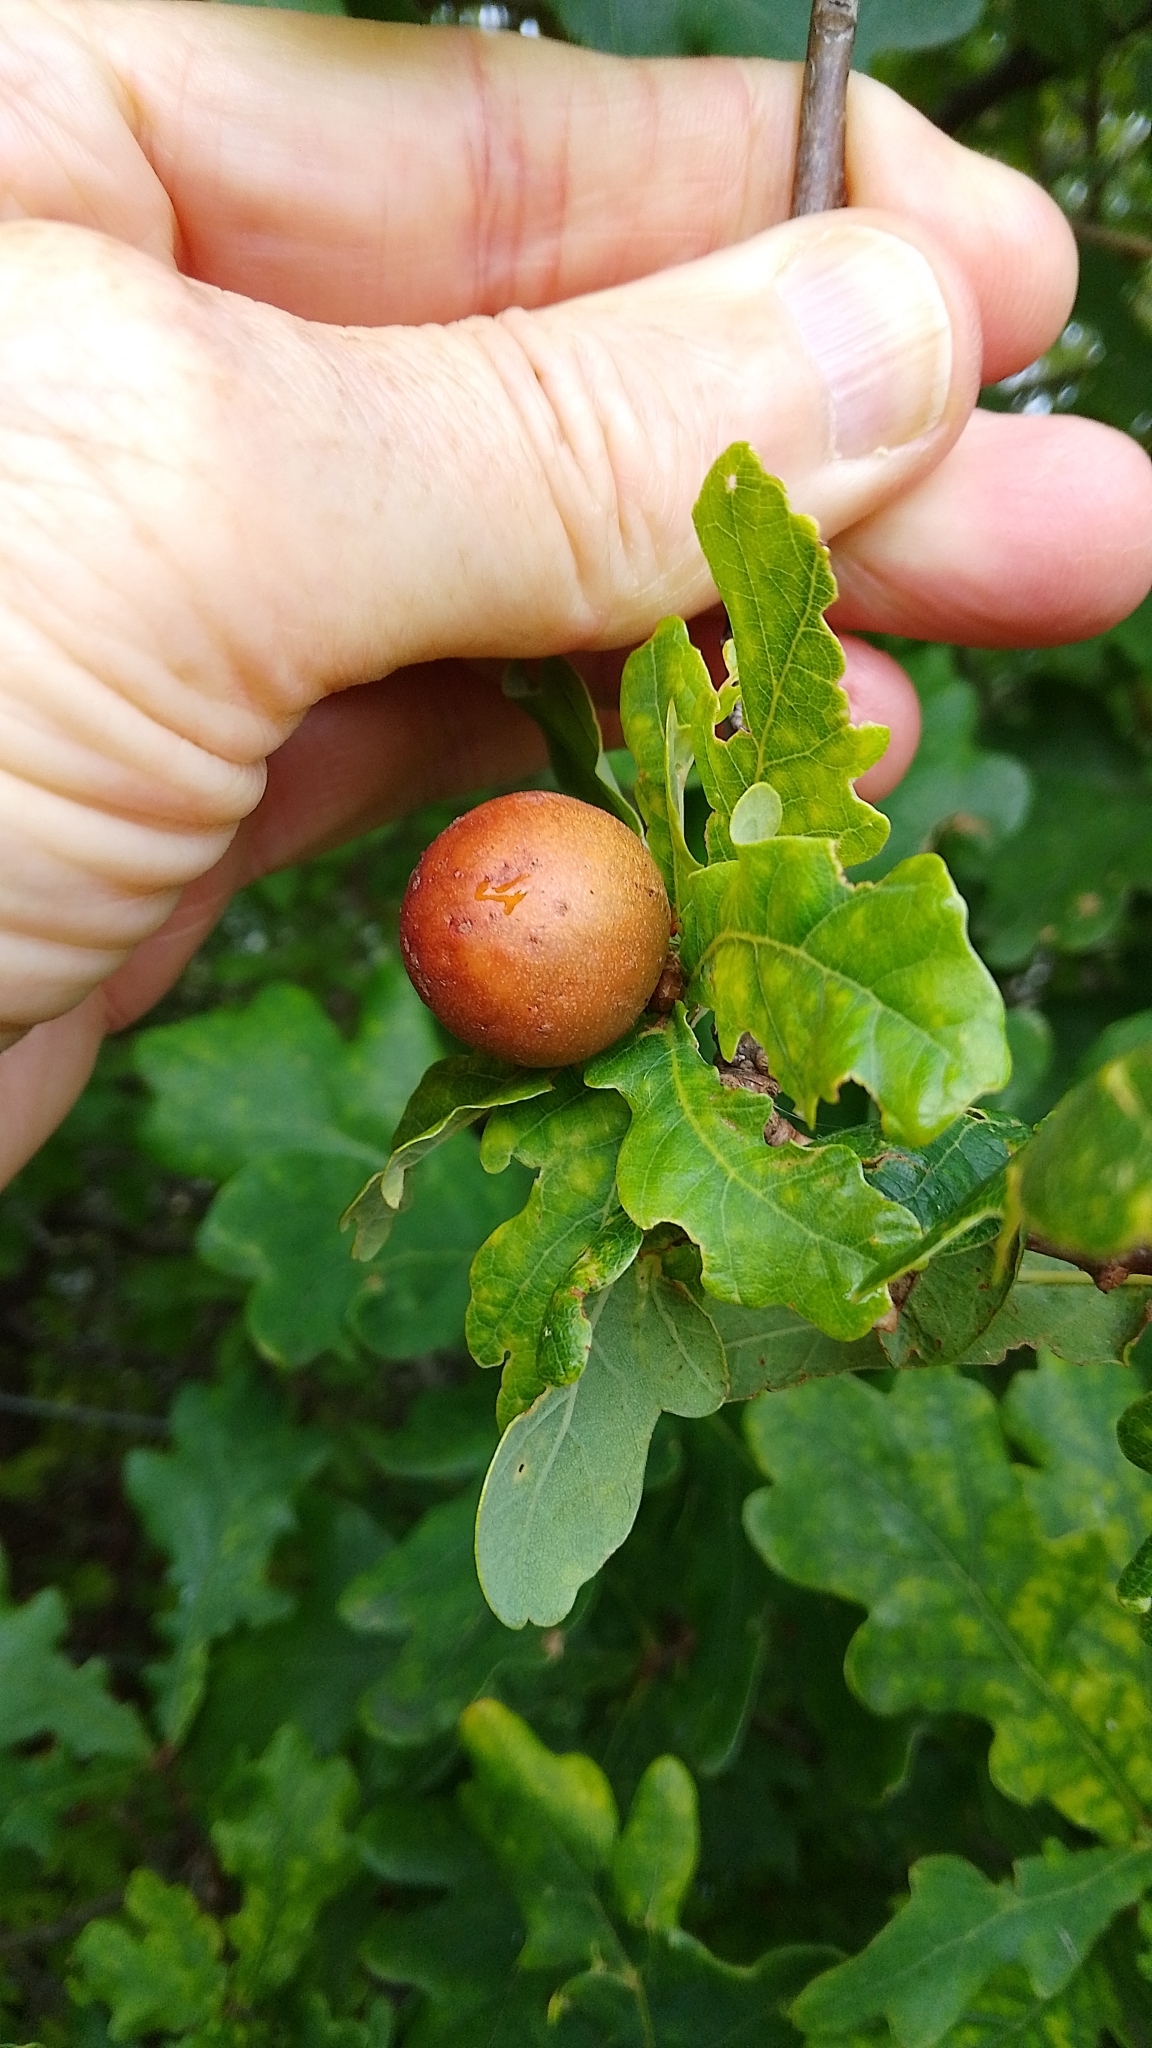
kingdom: Animalia
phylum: Arthropoda
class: Insecta
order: Hymenoptera
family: Cynipidae
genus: Andricus
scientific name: Andricus kollari
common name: Marble gall
